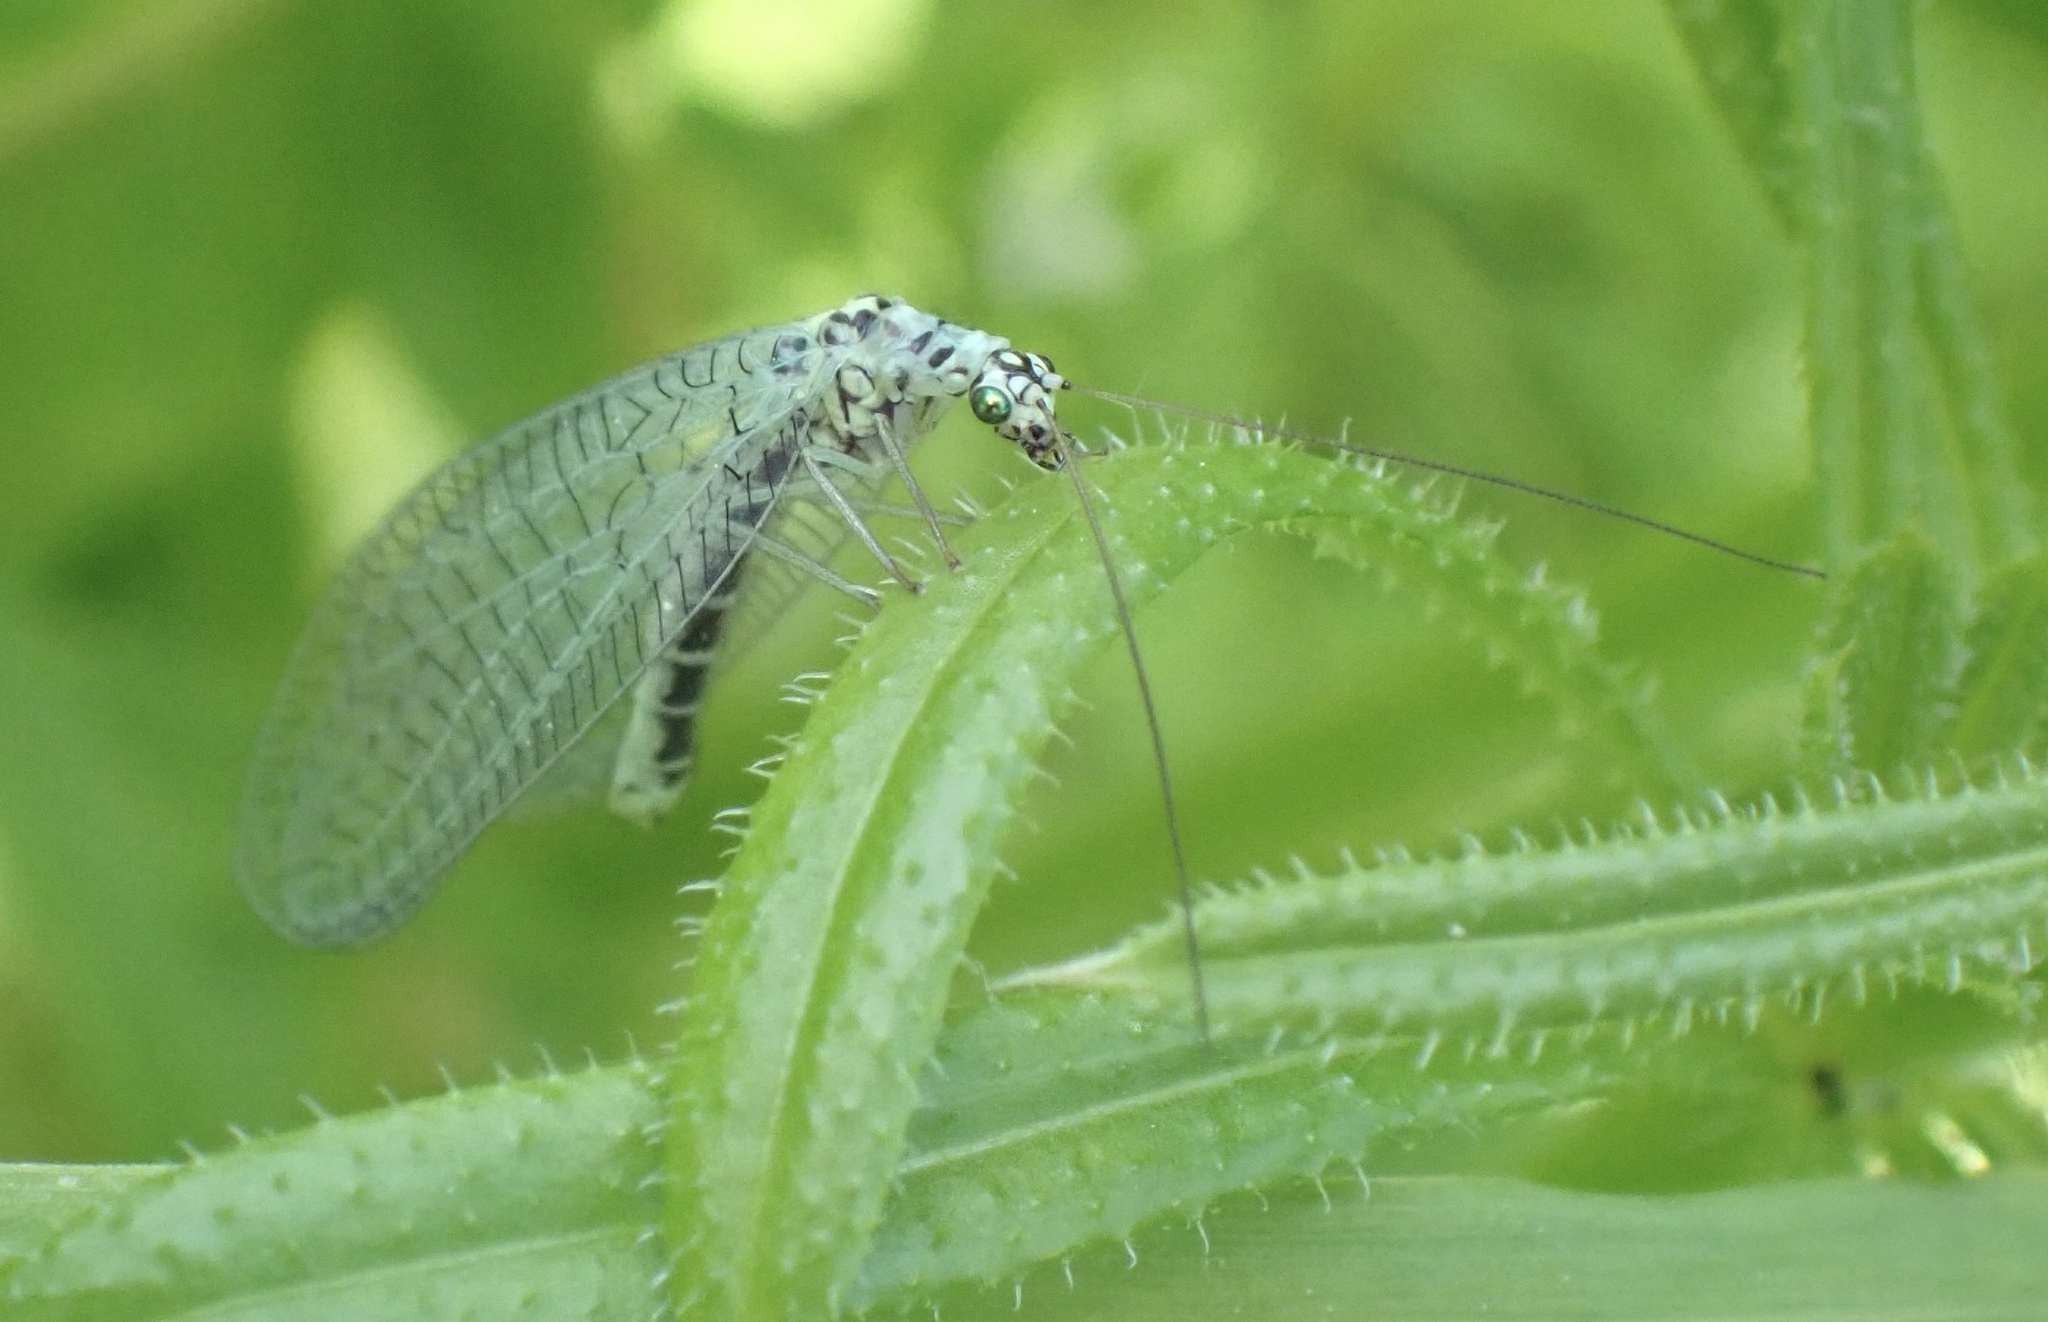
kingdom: Animalia
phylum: Arthropoda
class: Insecta
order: Neuroptera
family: Chrysopidae
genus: Chrysopa
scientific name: Chrysopa perla
